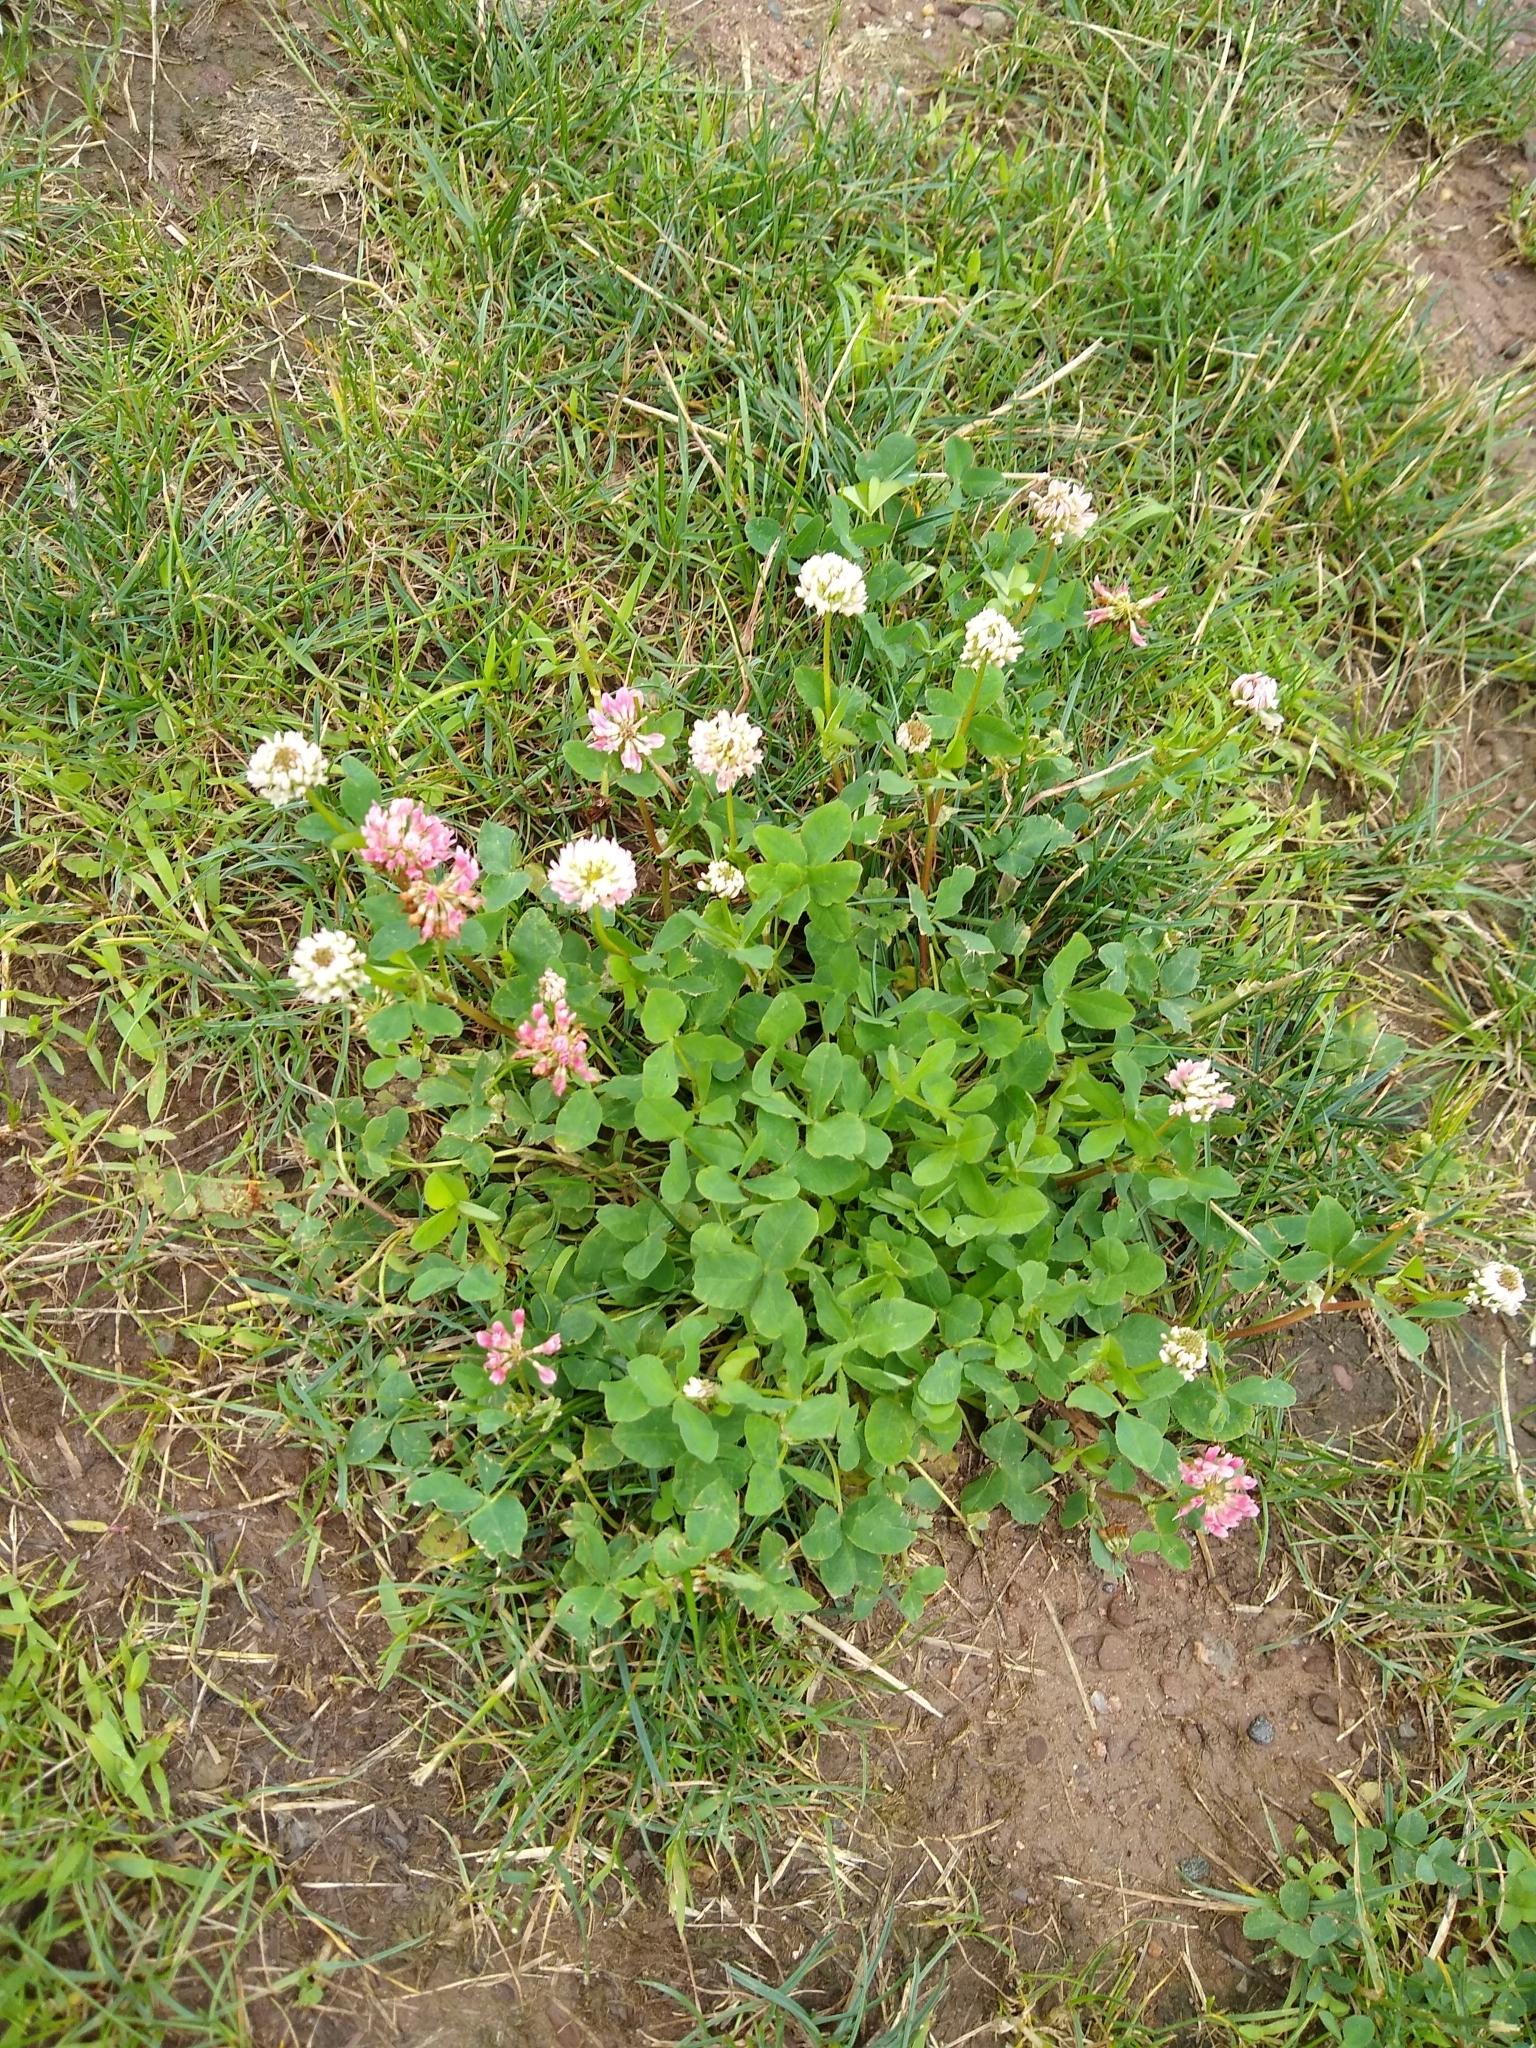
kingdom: Plantae
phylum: Tracheophyta
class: Magnoliopsida
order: Fabales
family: Fabaceae
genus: Trifolium
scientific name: Trifolium hybridum
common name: Alsike clover
